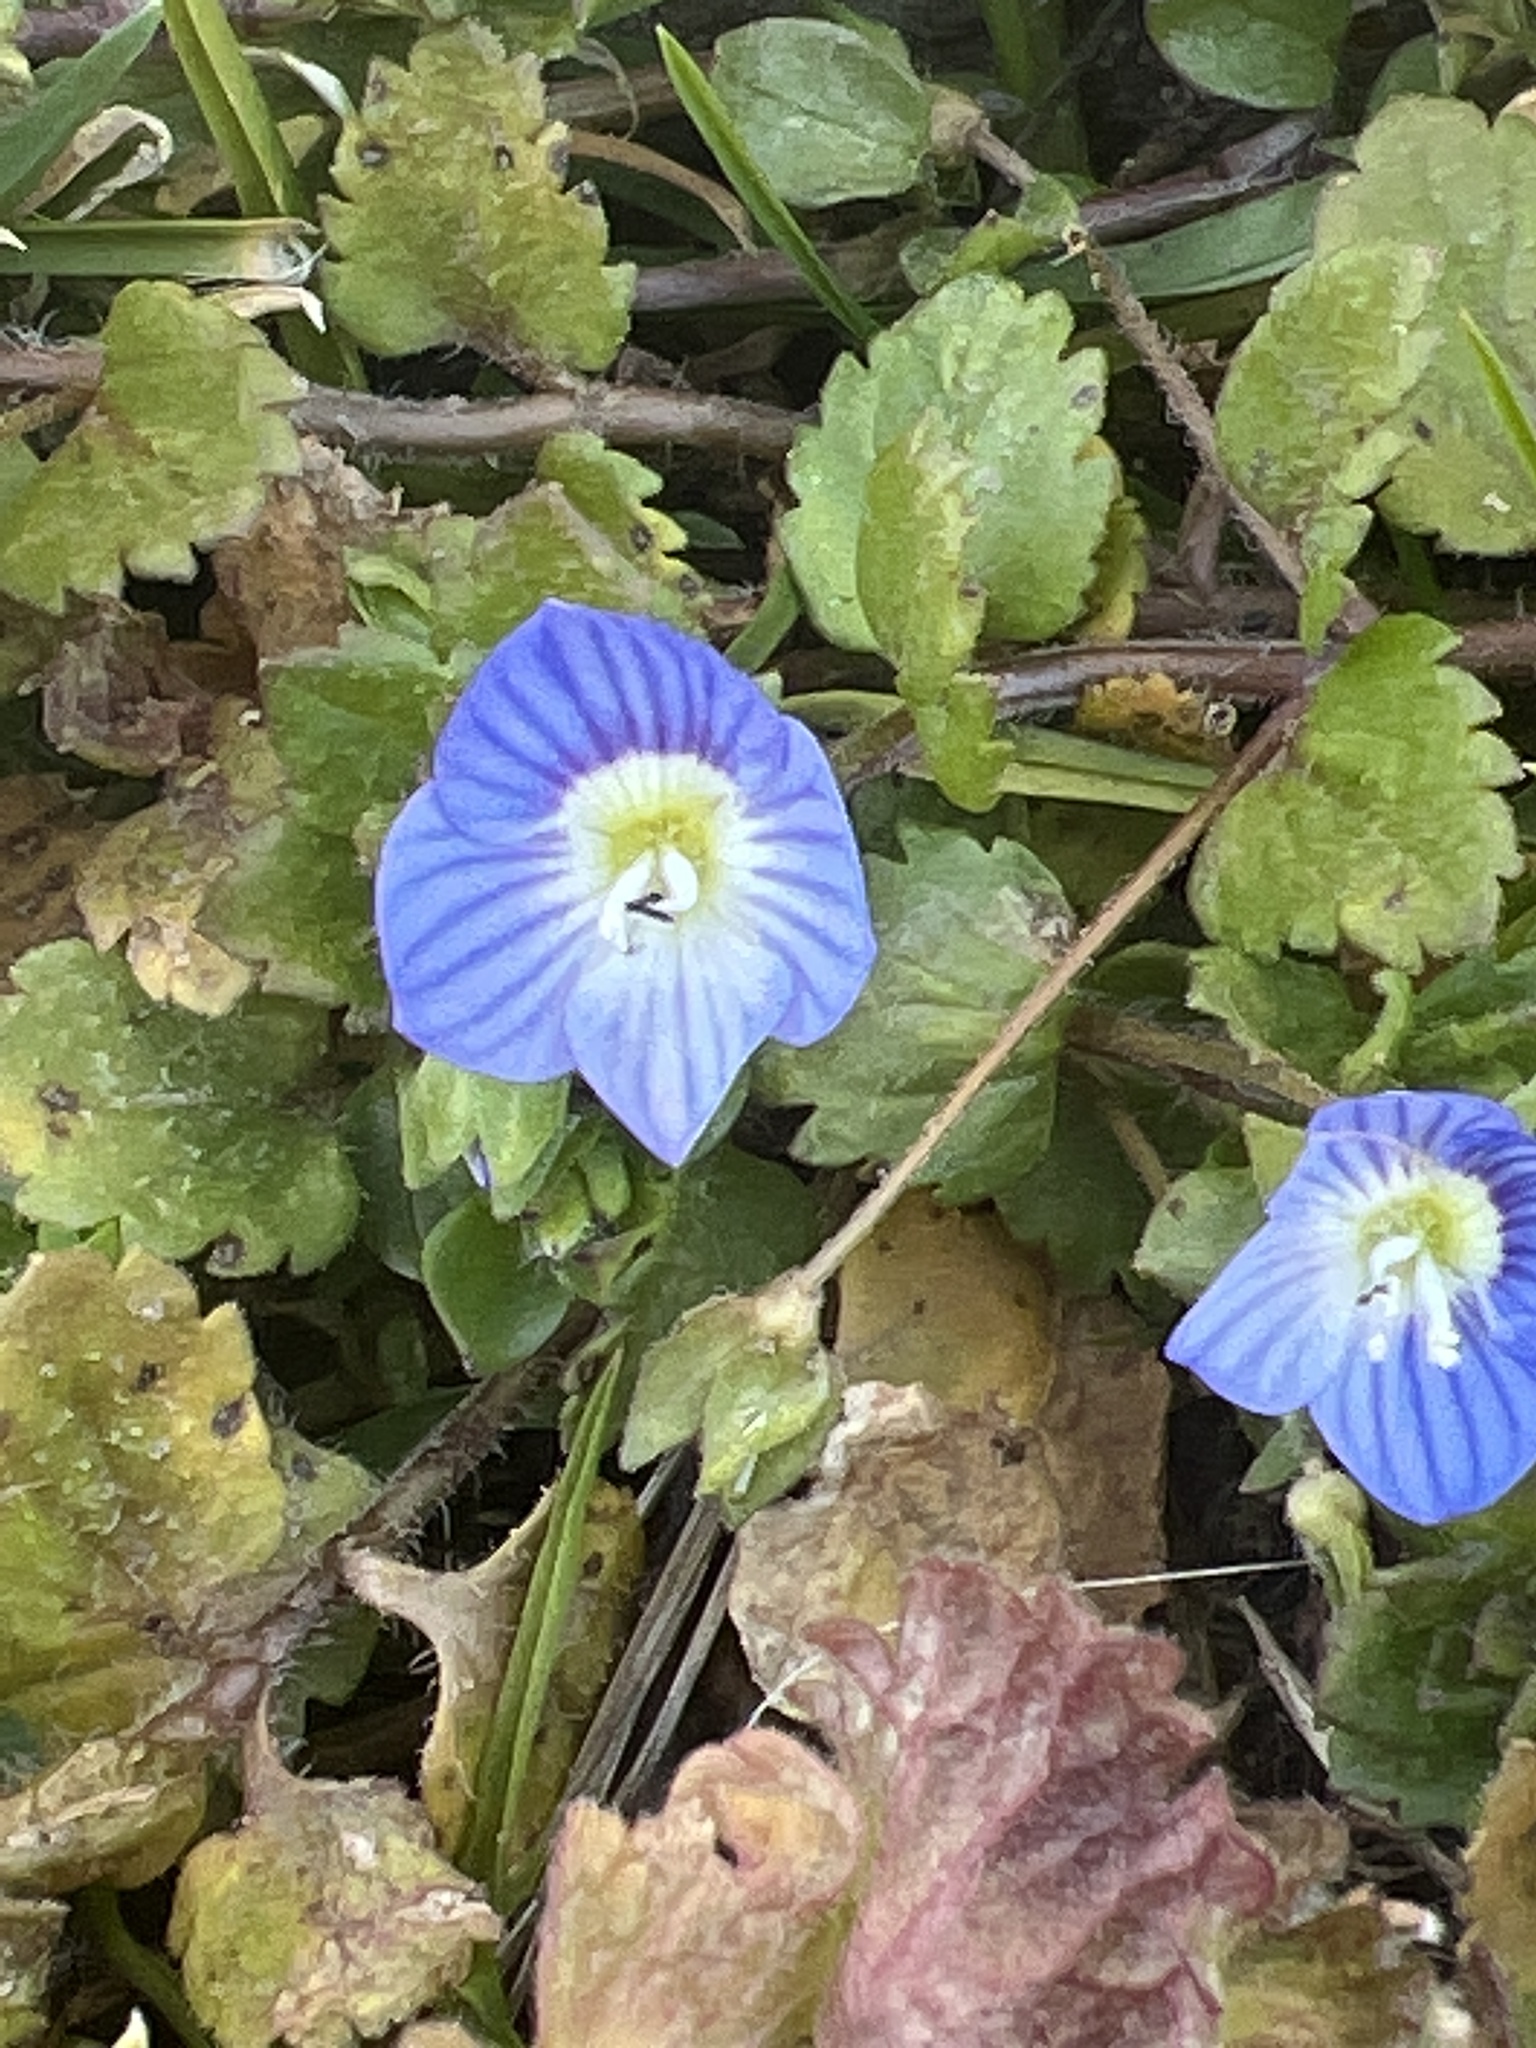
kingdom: Plantae
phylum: Tracheophyta
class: Magnoliopsida
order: Lamiales
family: Plantaginaceae
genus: Veronica
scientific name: Veronica persica
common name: Common field-speedwell
